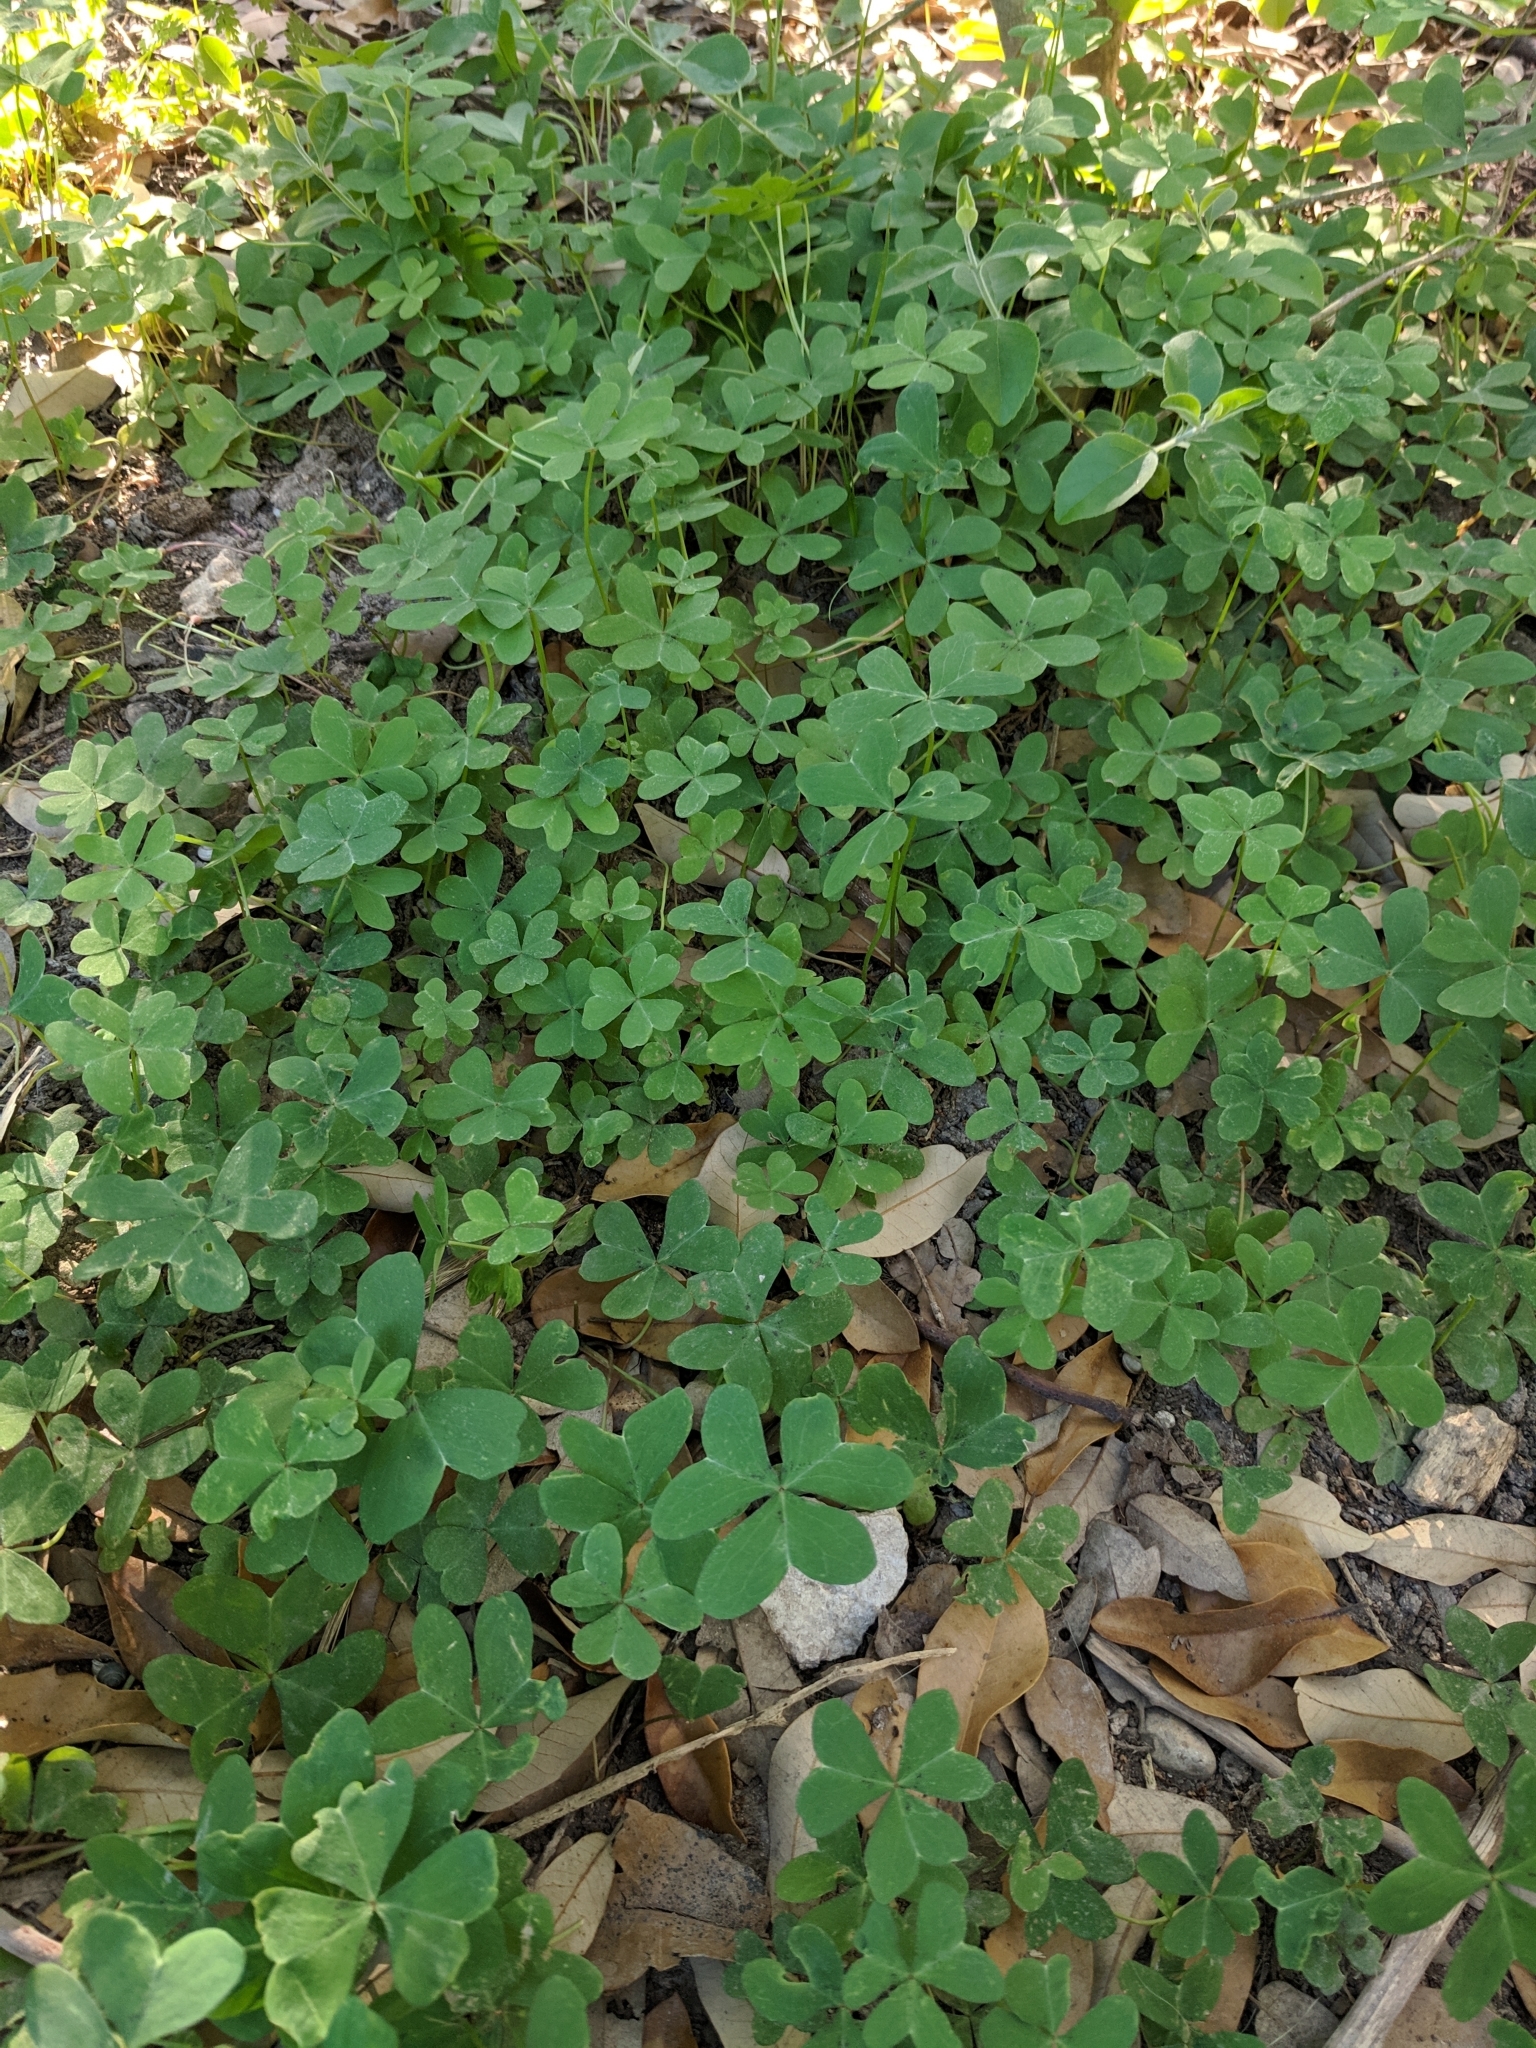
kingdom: Plantae
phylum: Tracheophyta
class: Magnoliopsida
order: Oxalidales
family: Oxalidaceae
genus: Oxalis
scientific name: Oxalis drummondii
